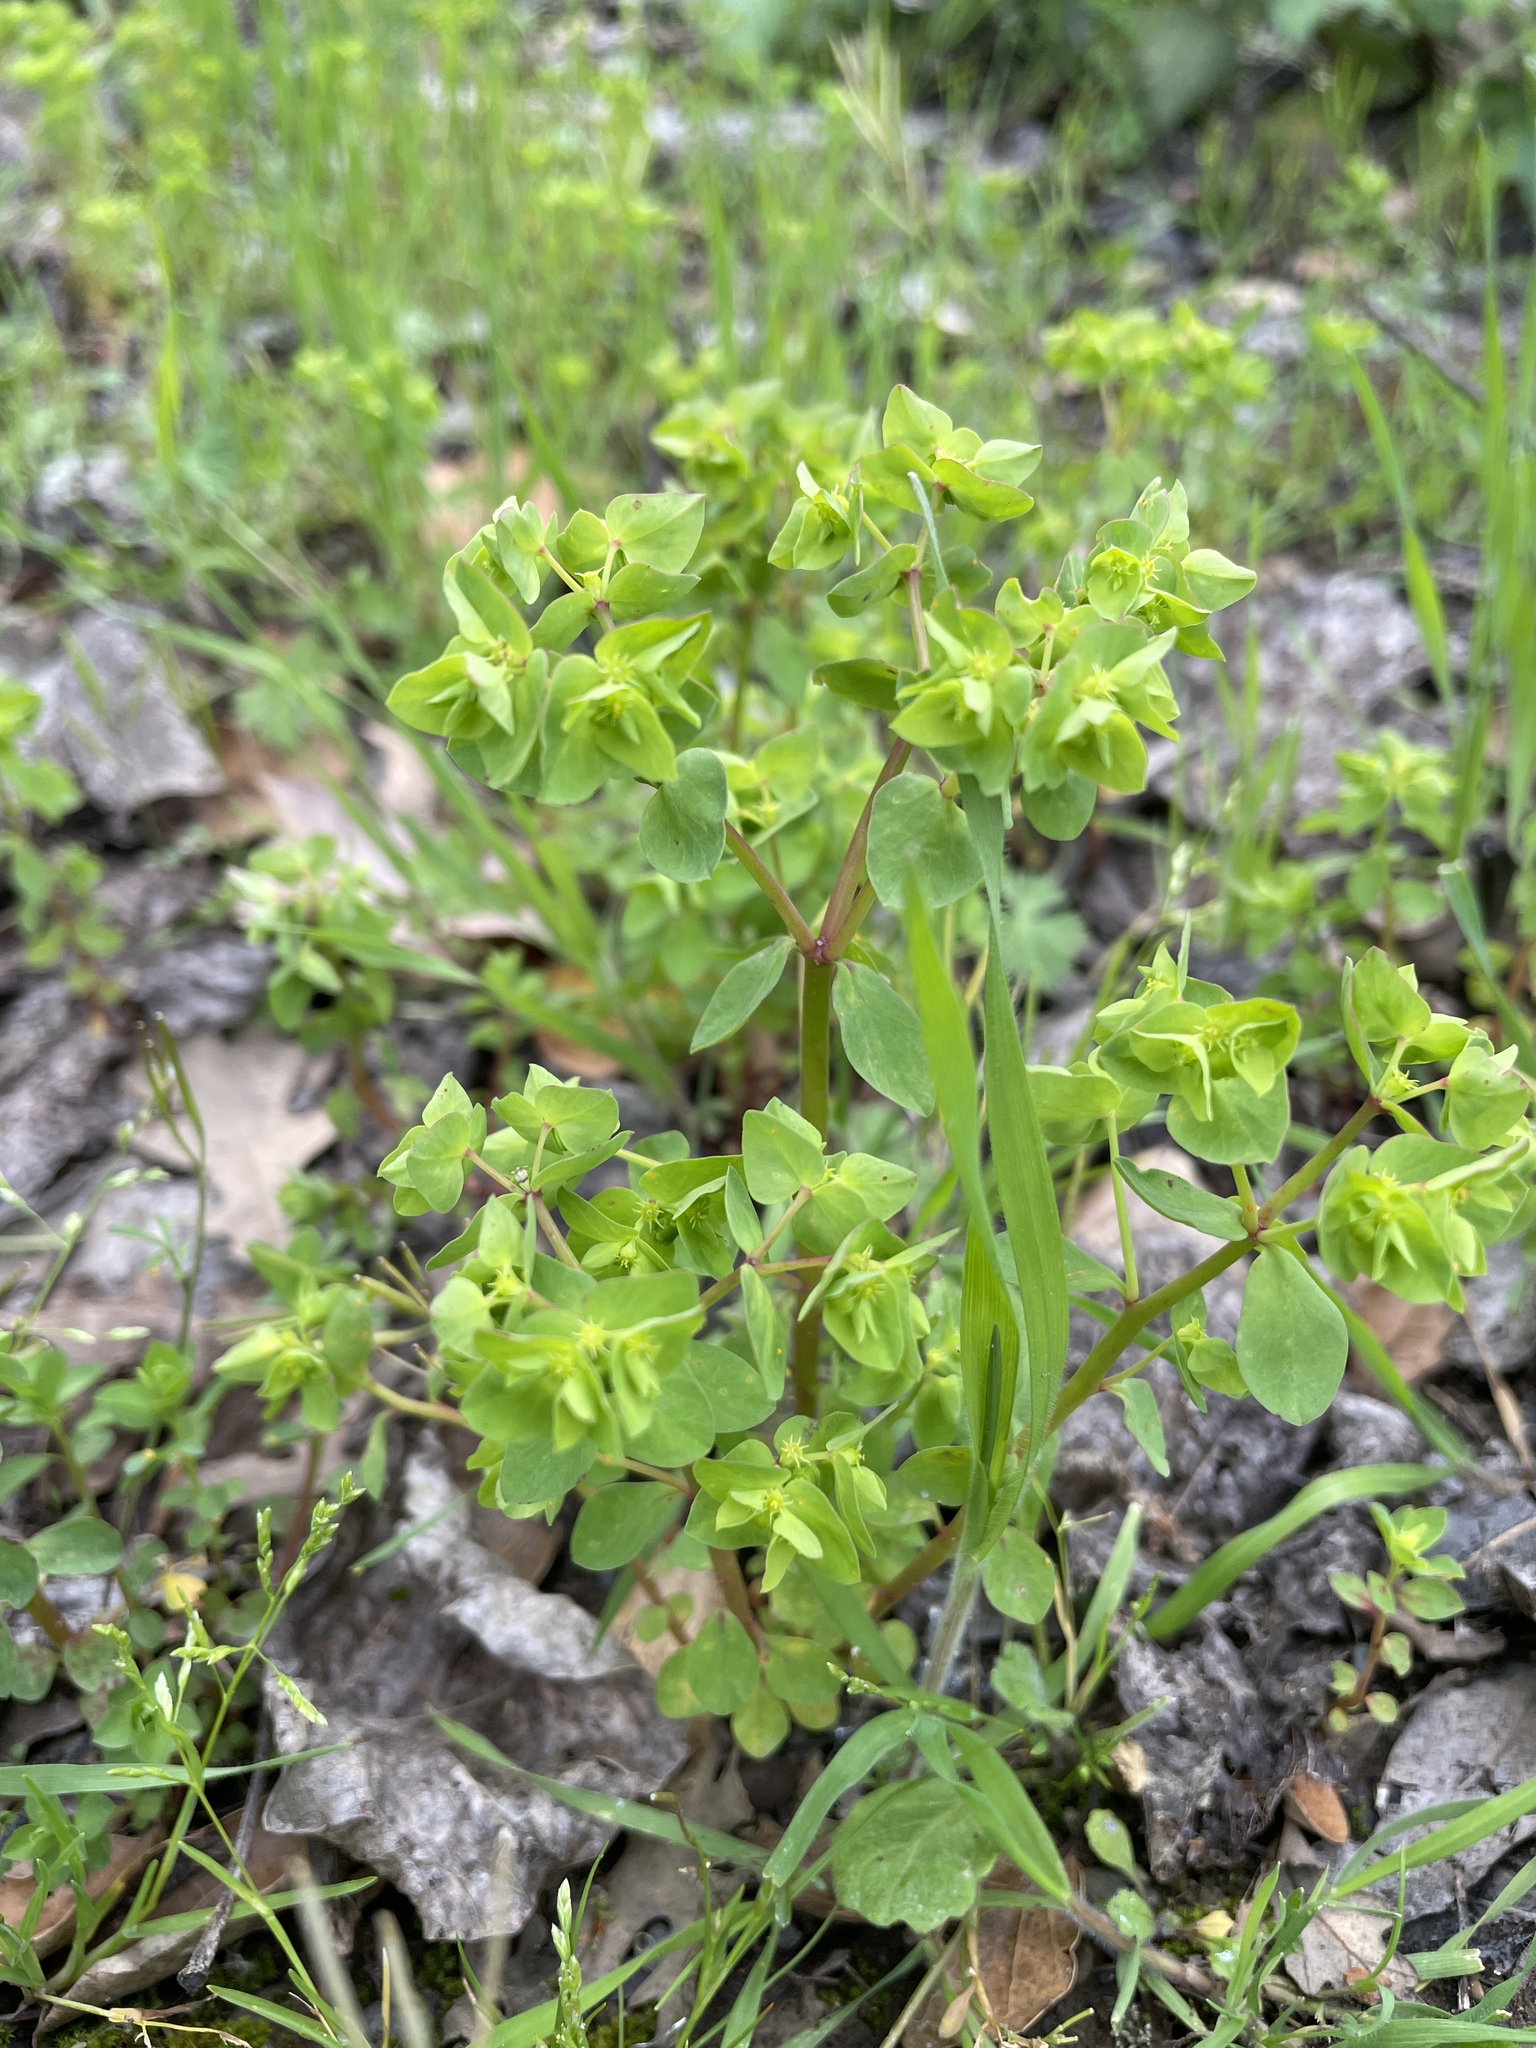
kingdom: Plantae
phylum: Tracheophyta
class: Magnoliopsida
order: Malpighiales
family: Euphorbiaceae
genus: Euphorbia
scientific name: Euphorbia peplus
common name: Petty spurge
